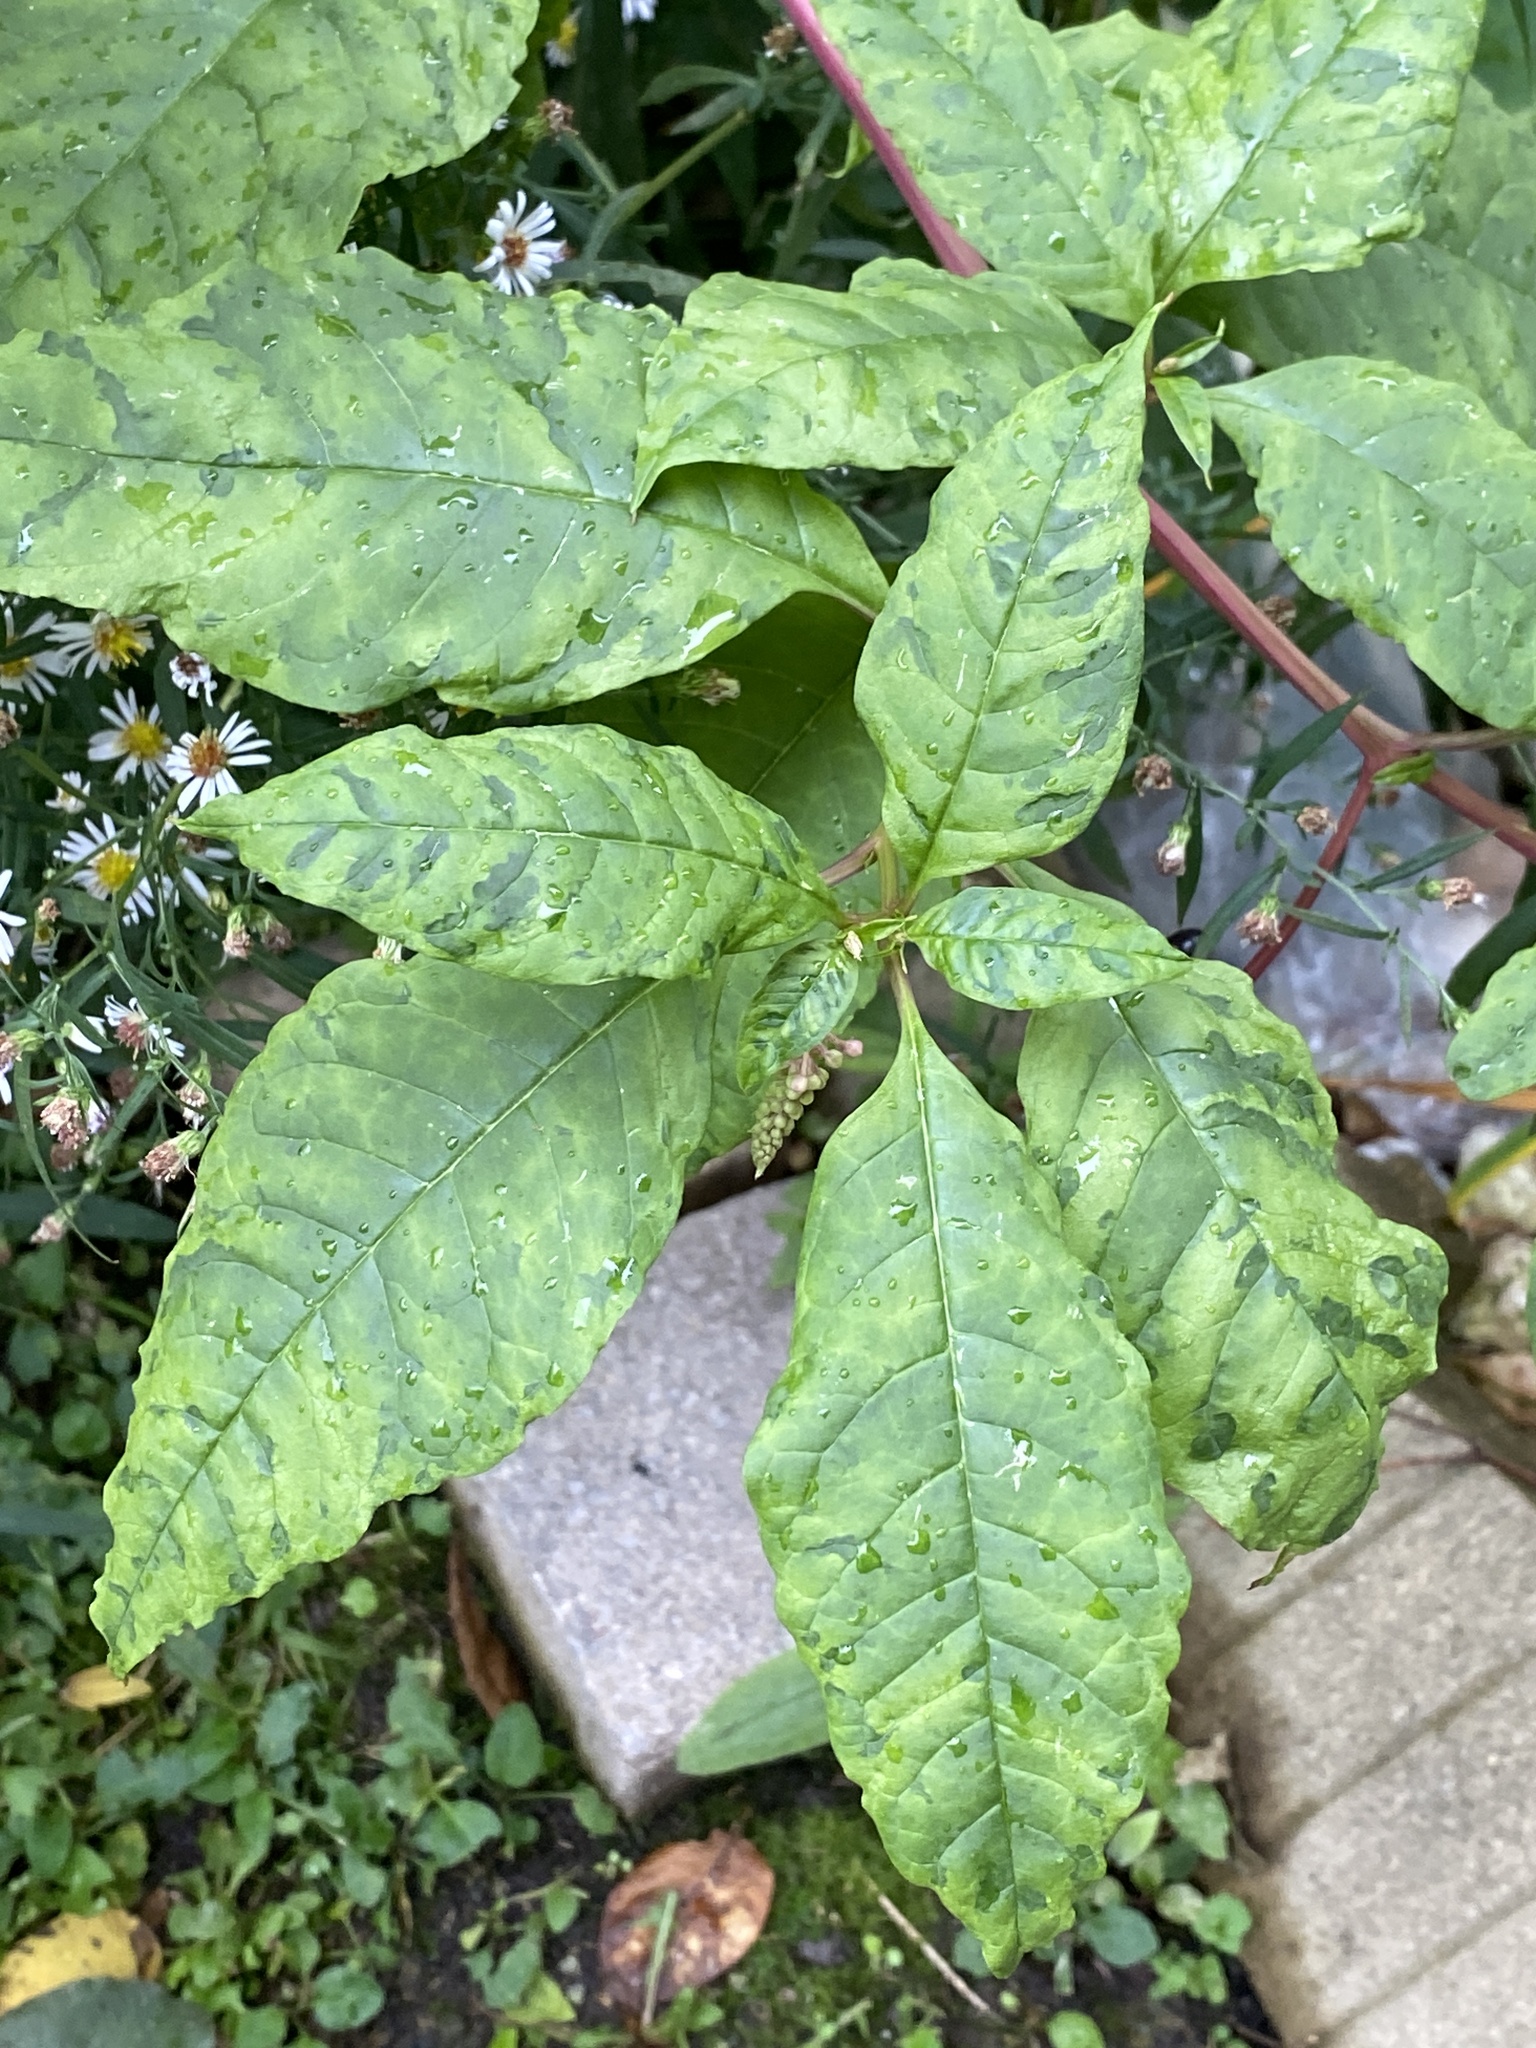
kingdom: Viruses
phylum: Pisuviricota
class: Stelpaviricetes
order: Patatavirales
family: Potyviridae
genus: Potyvirus
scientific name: Potyvirus Pokeweed mosaic virus
